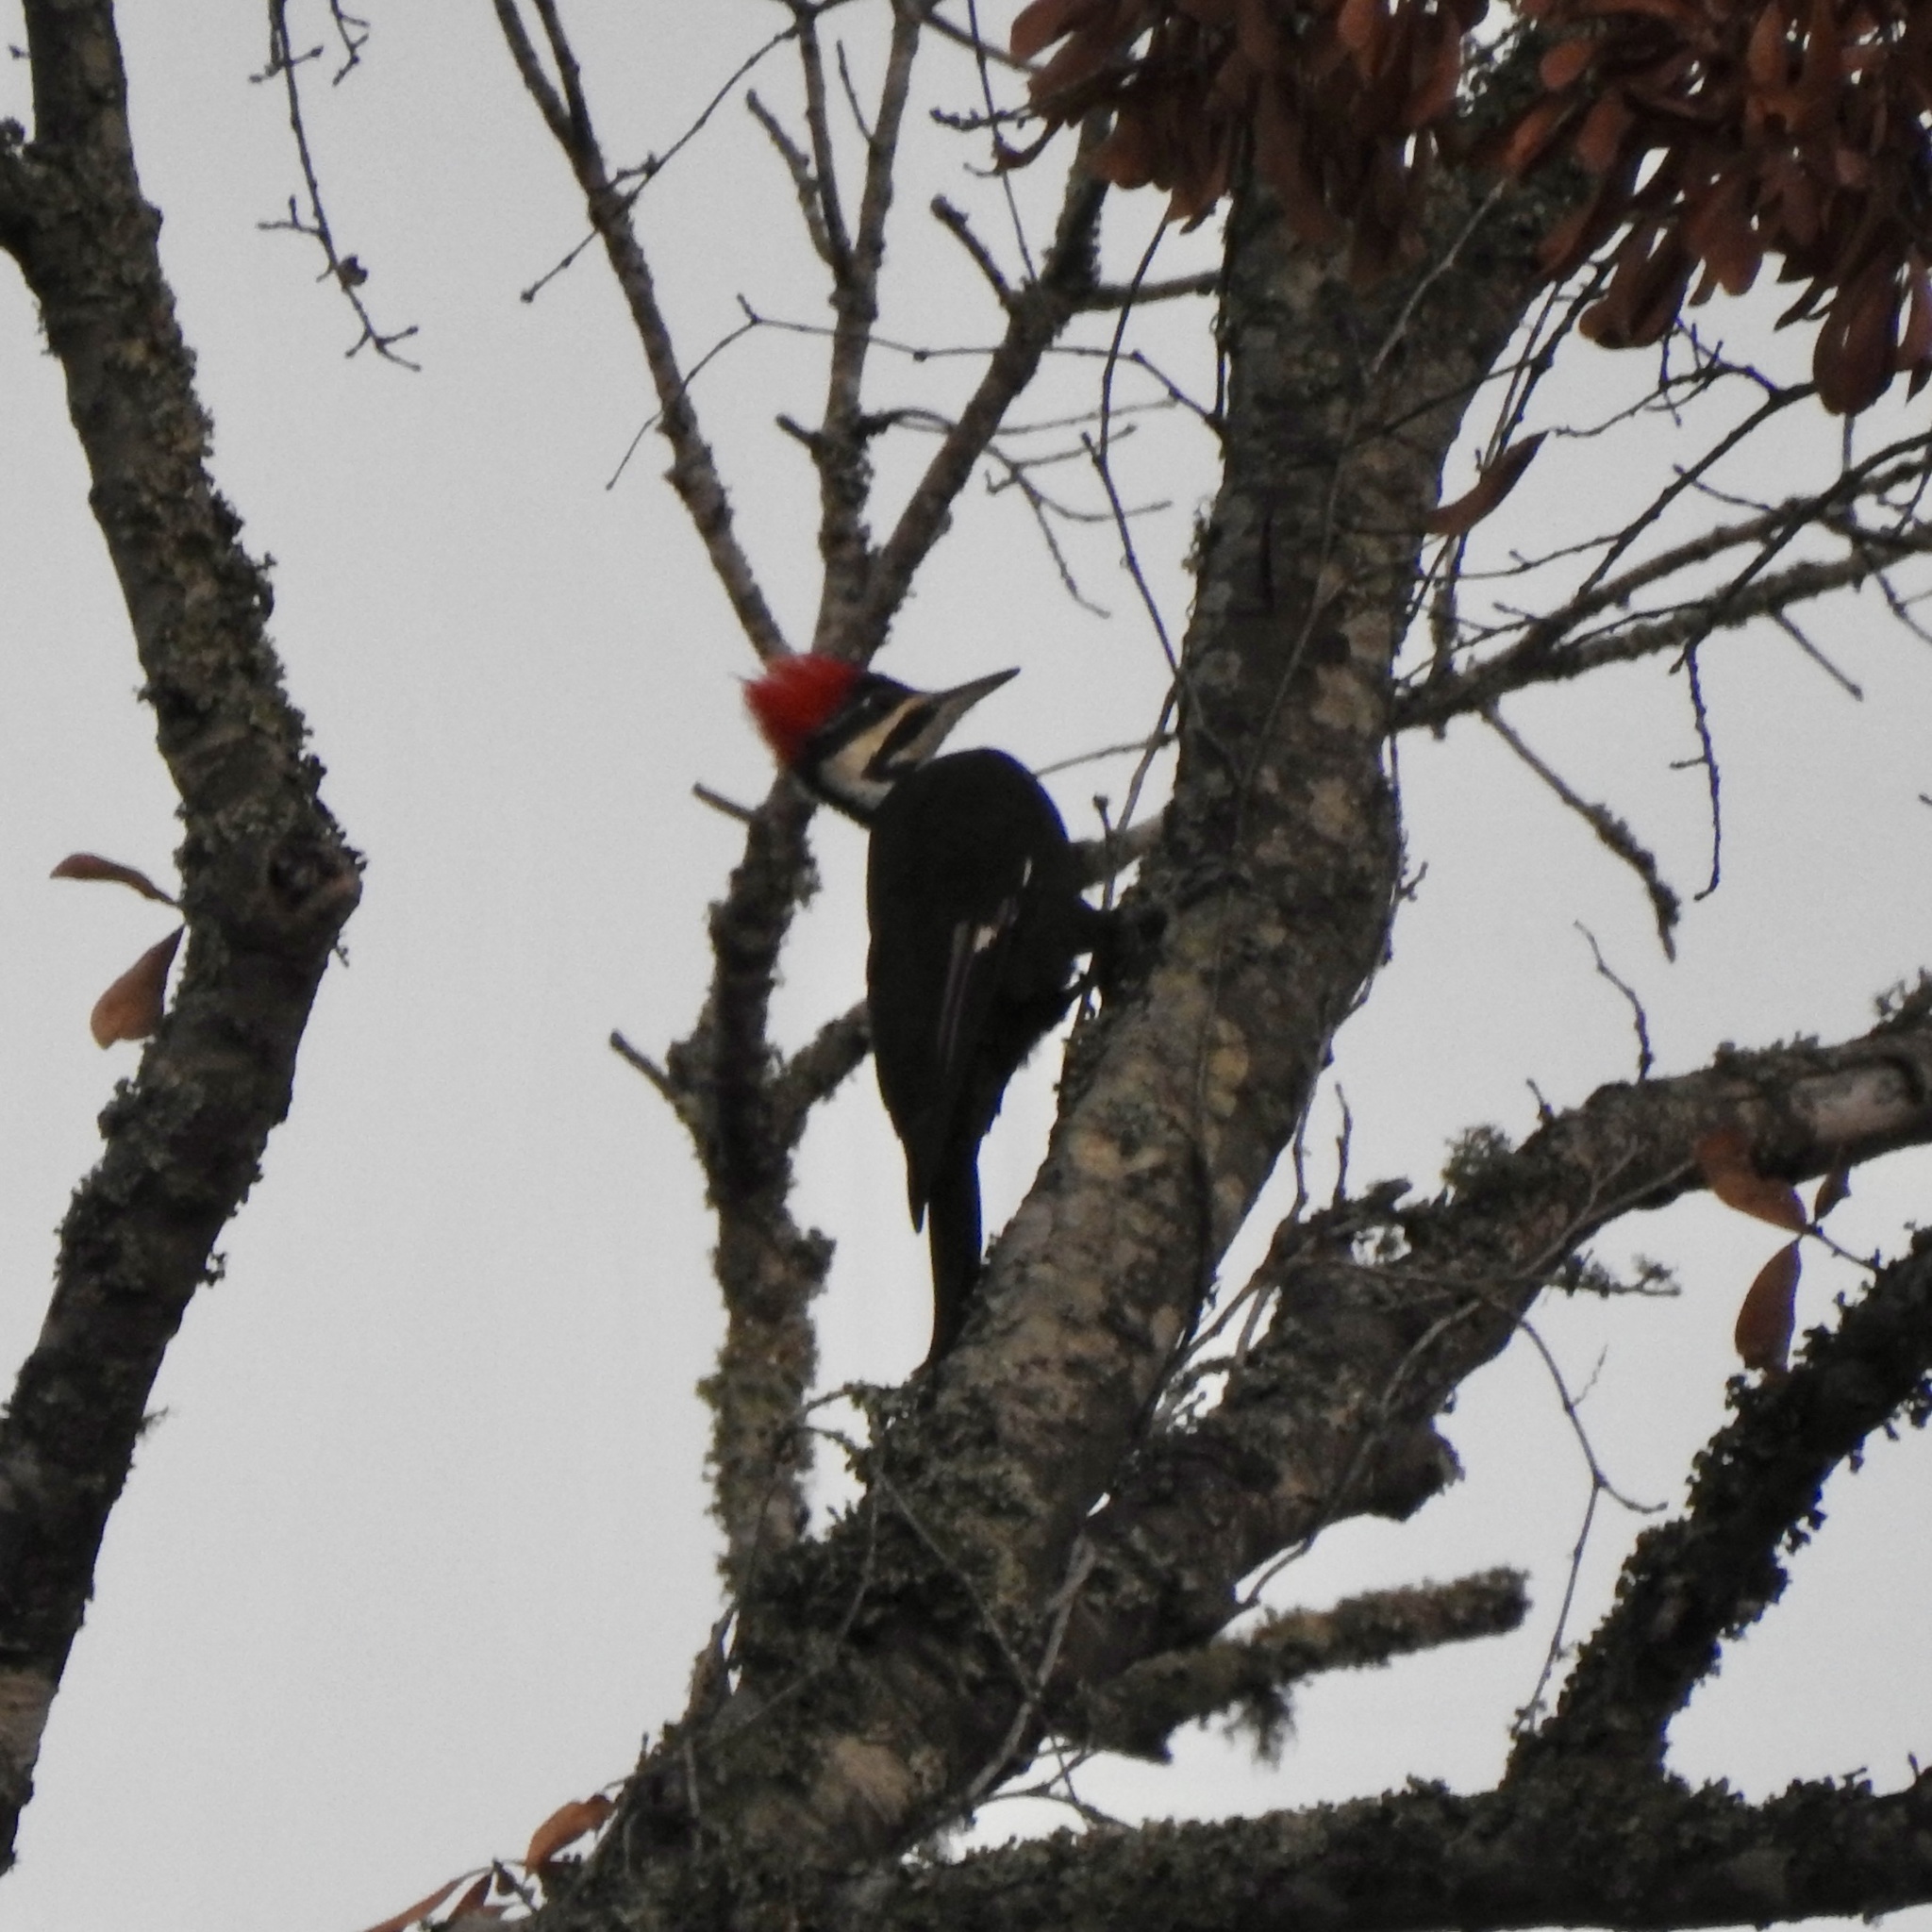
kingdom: Animalia
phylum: Chordata
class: Aves
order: Piciformes
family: Picidae
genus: Dryocopus
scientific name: Dryocopus pileatus
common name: Pileated woodpecker
